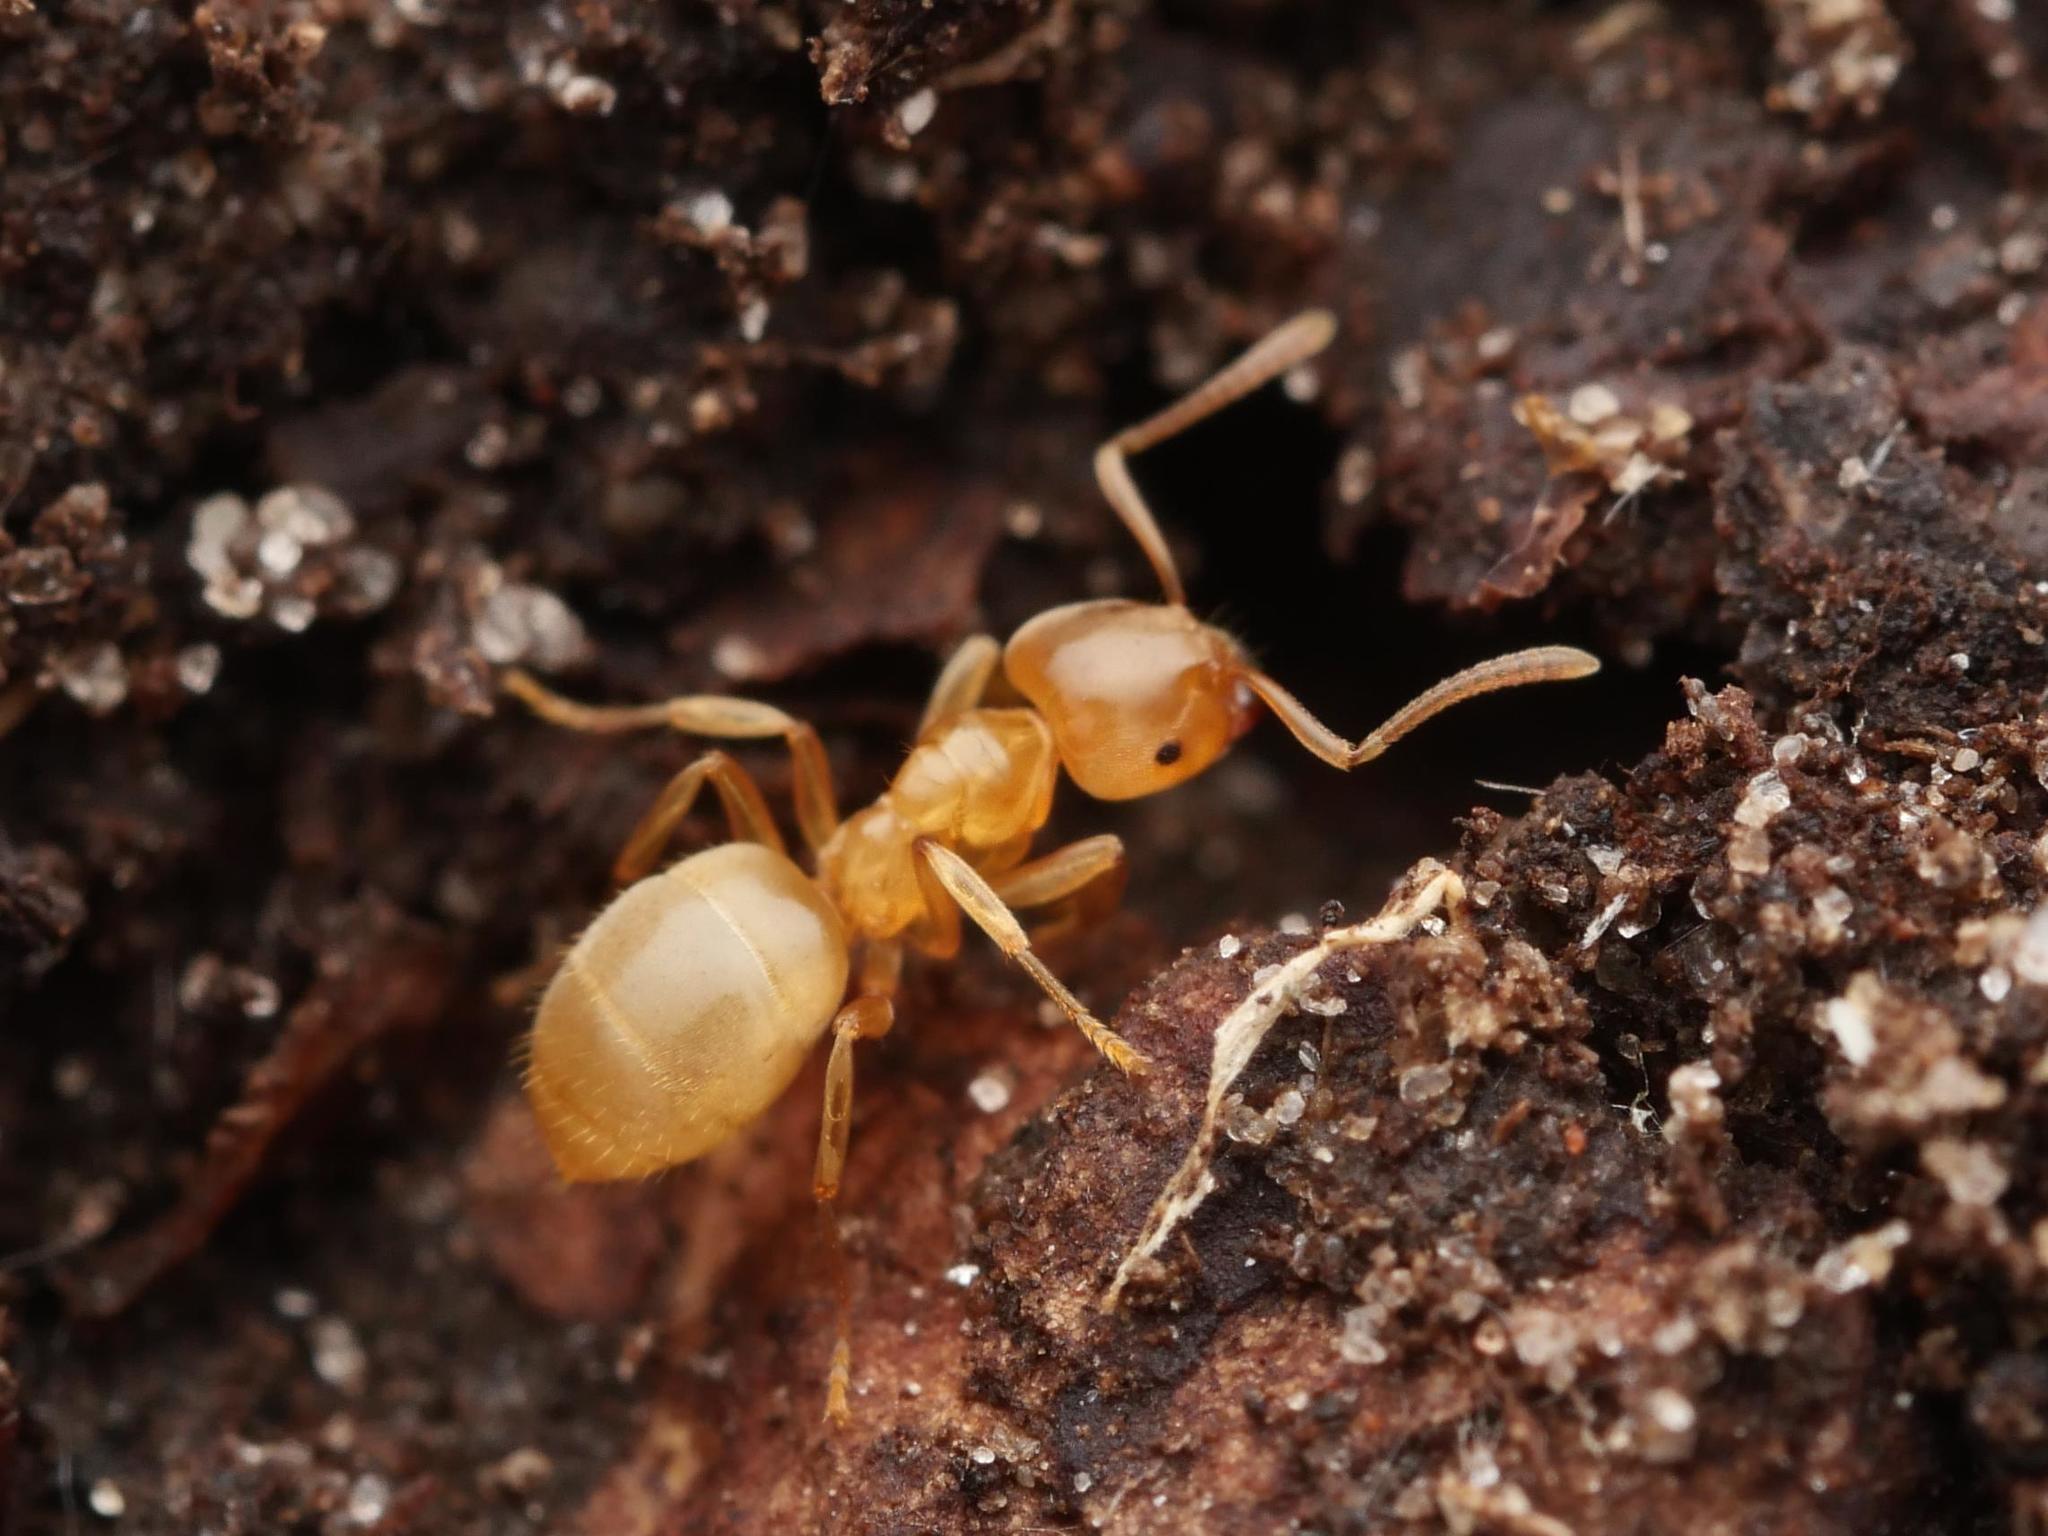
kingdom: Animalia
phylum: Arthropoda
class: Insecta
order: Hymenoptera
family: Formicidae
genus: Lasius
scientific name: Lasius flavus
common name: Blond field ant
